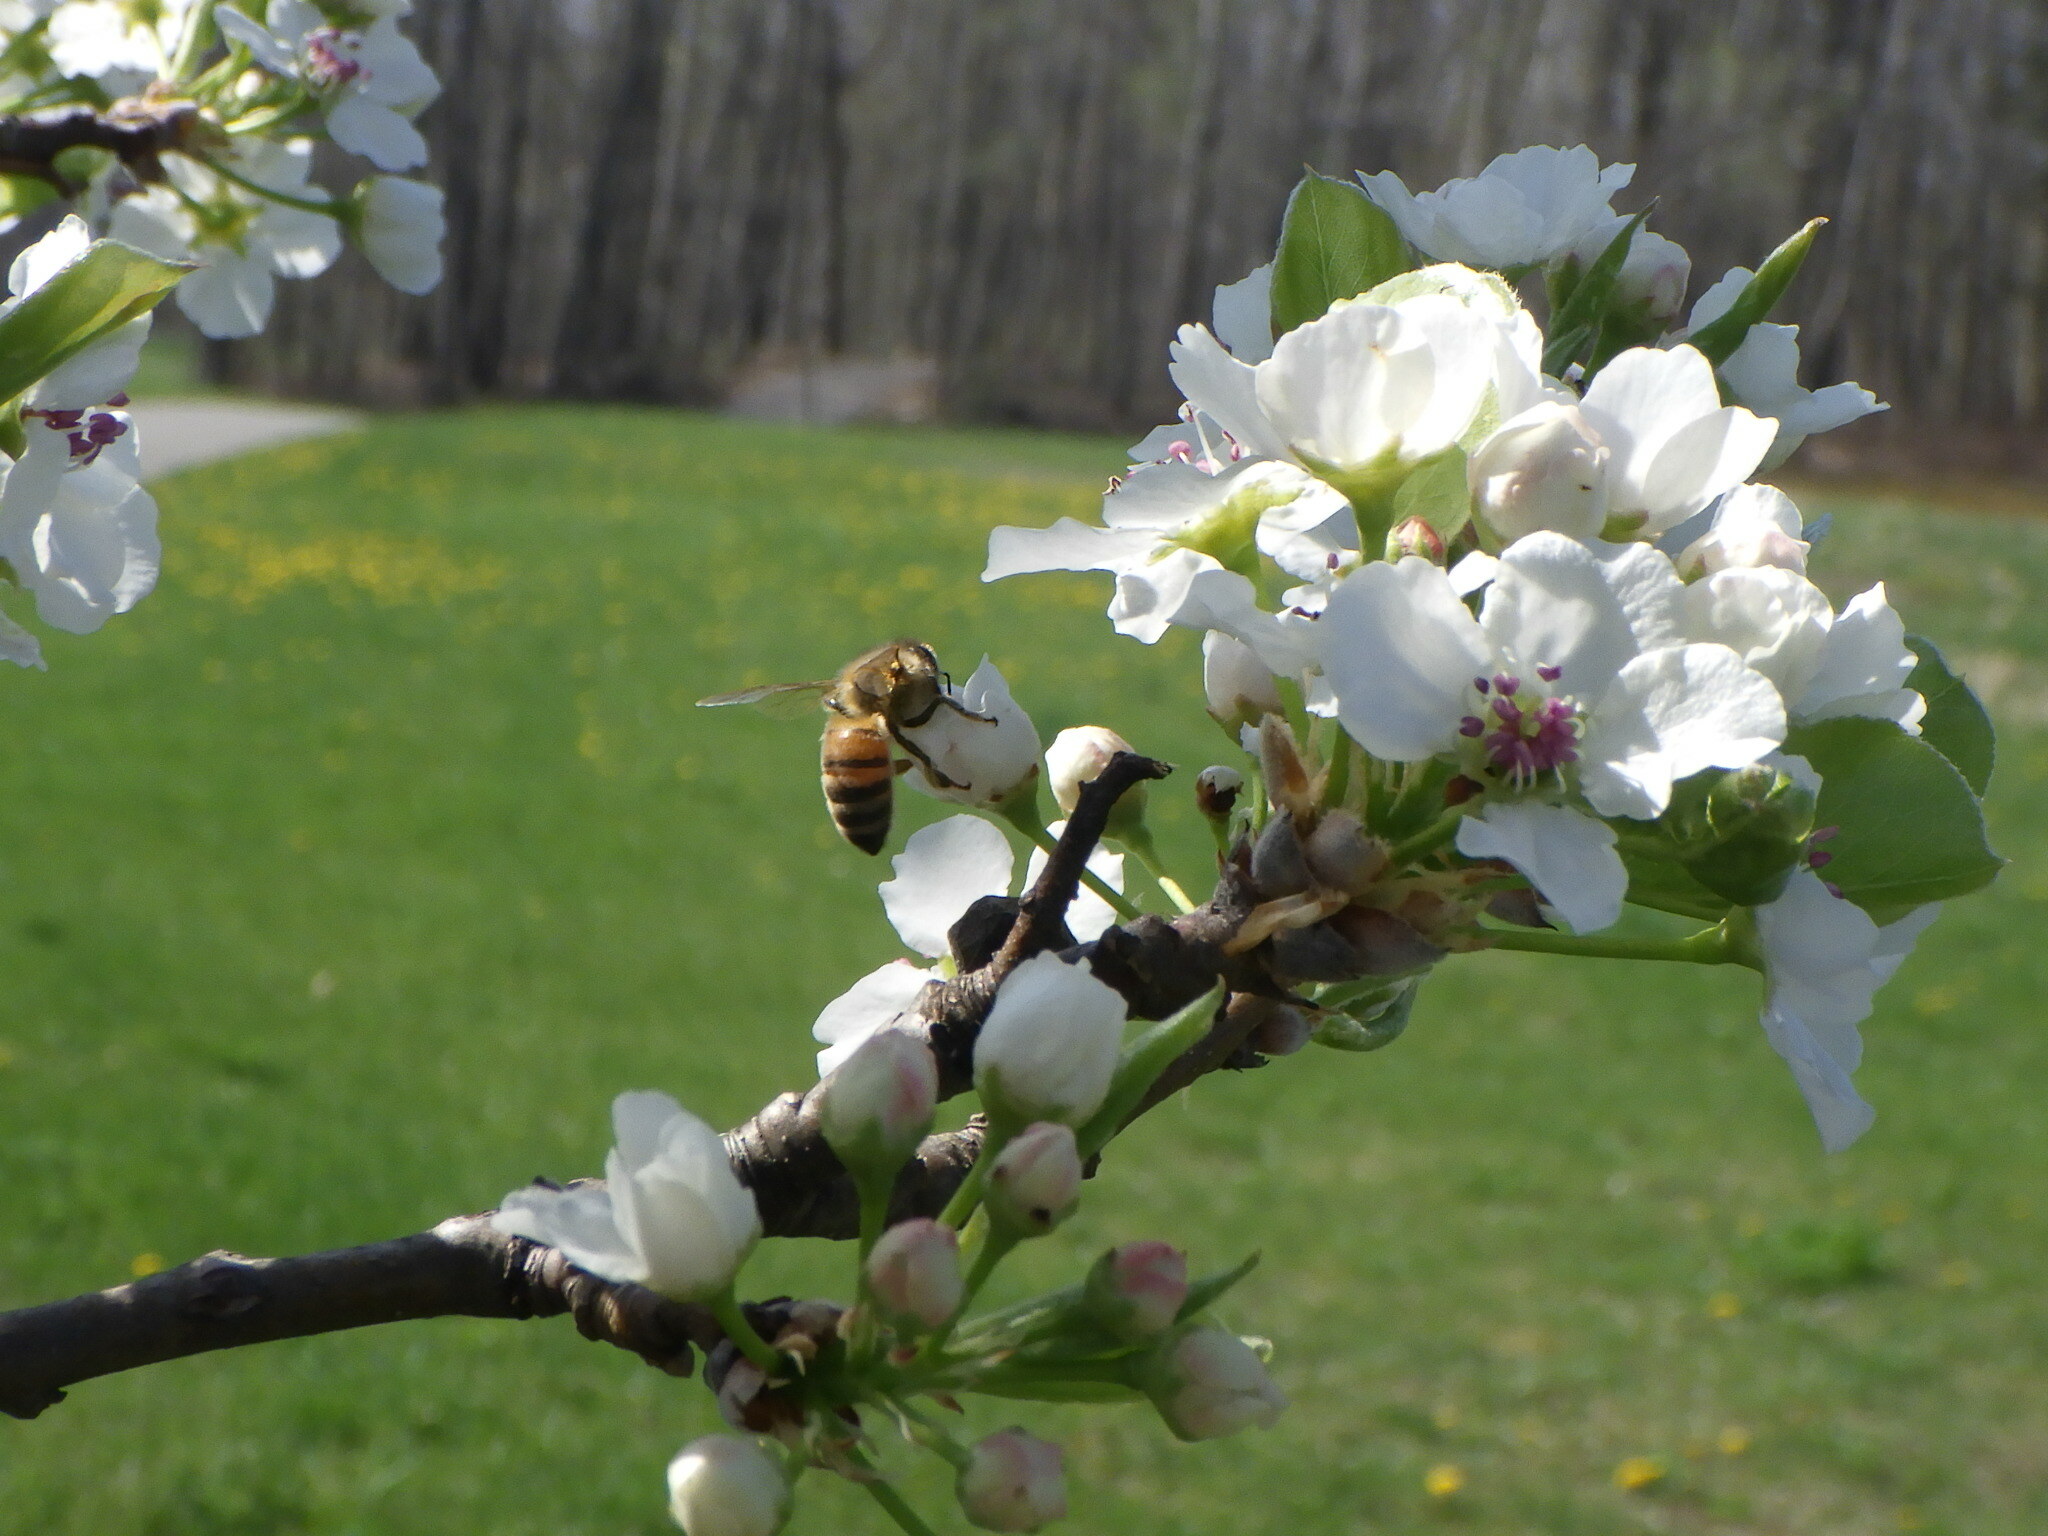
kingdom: Animalia
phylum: Arthropoda
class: Insecta
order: Hymenoptera
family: Apidae
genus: Apis
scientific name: Apis mellifera
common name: Honey bee
